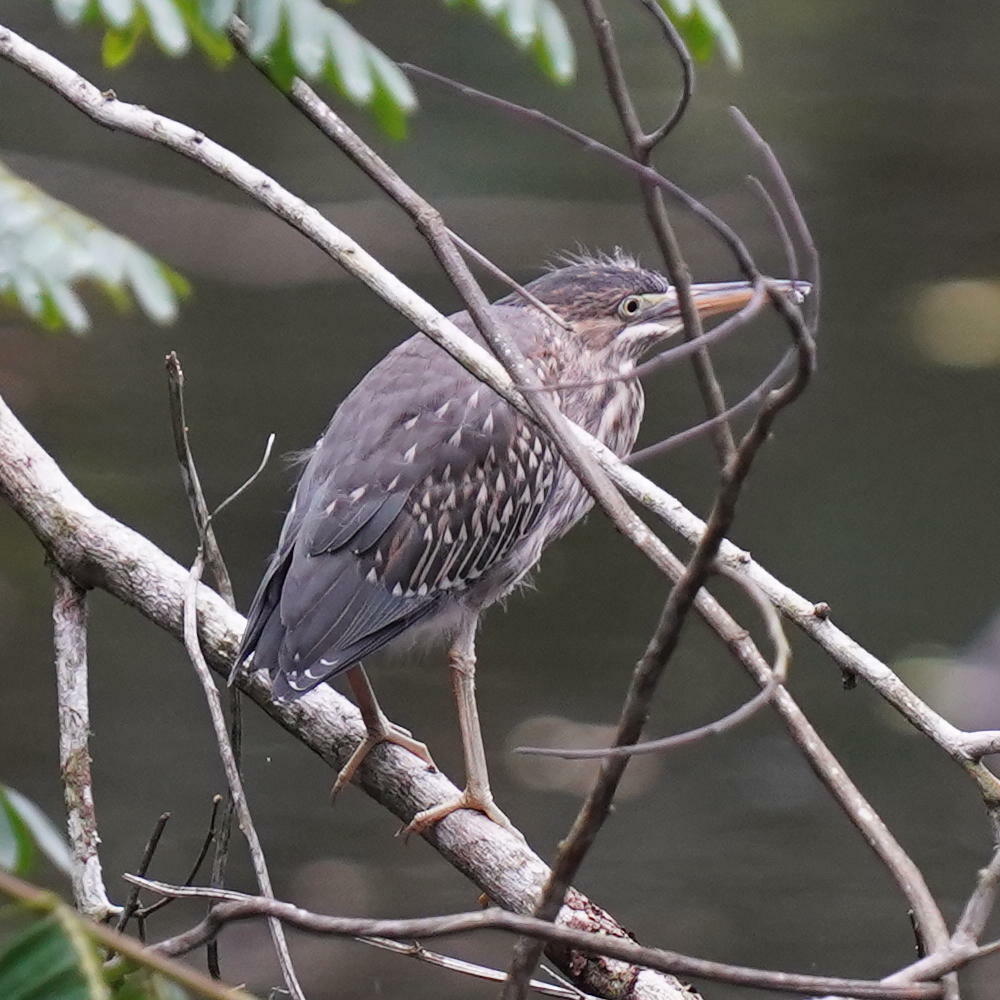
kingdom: Animalia
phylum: Chordata
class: Aves
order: Pelecaniformes
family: Ardeidae
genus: Butorides
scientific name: Butorides virescens
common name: Green heron
